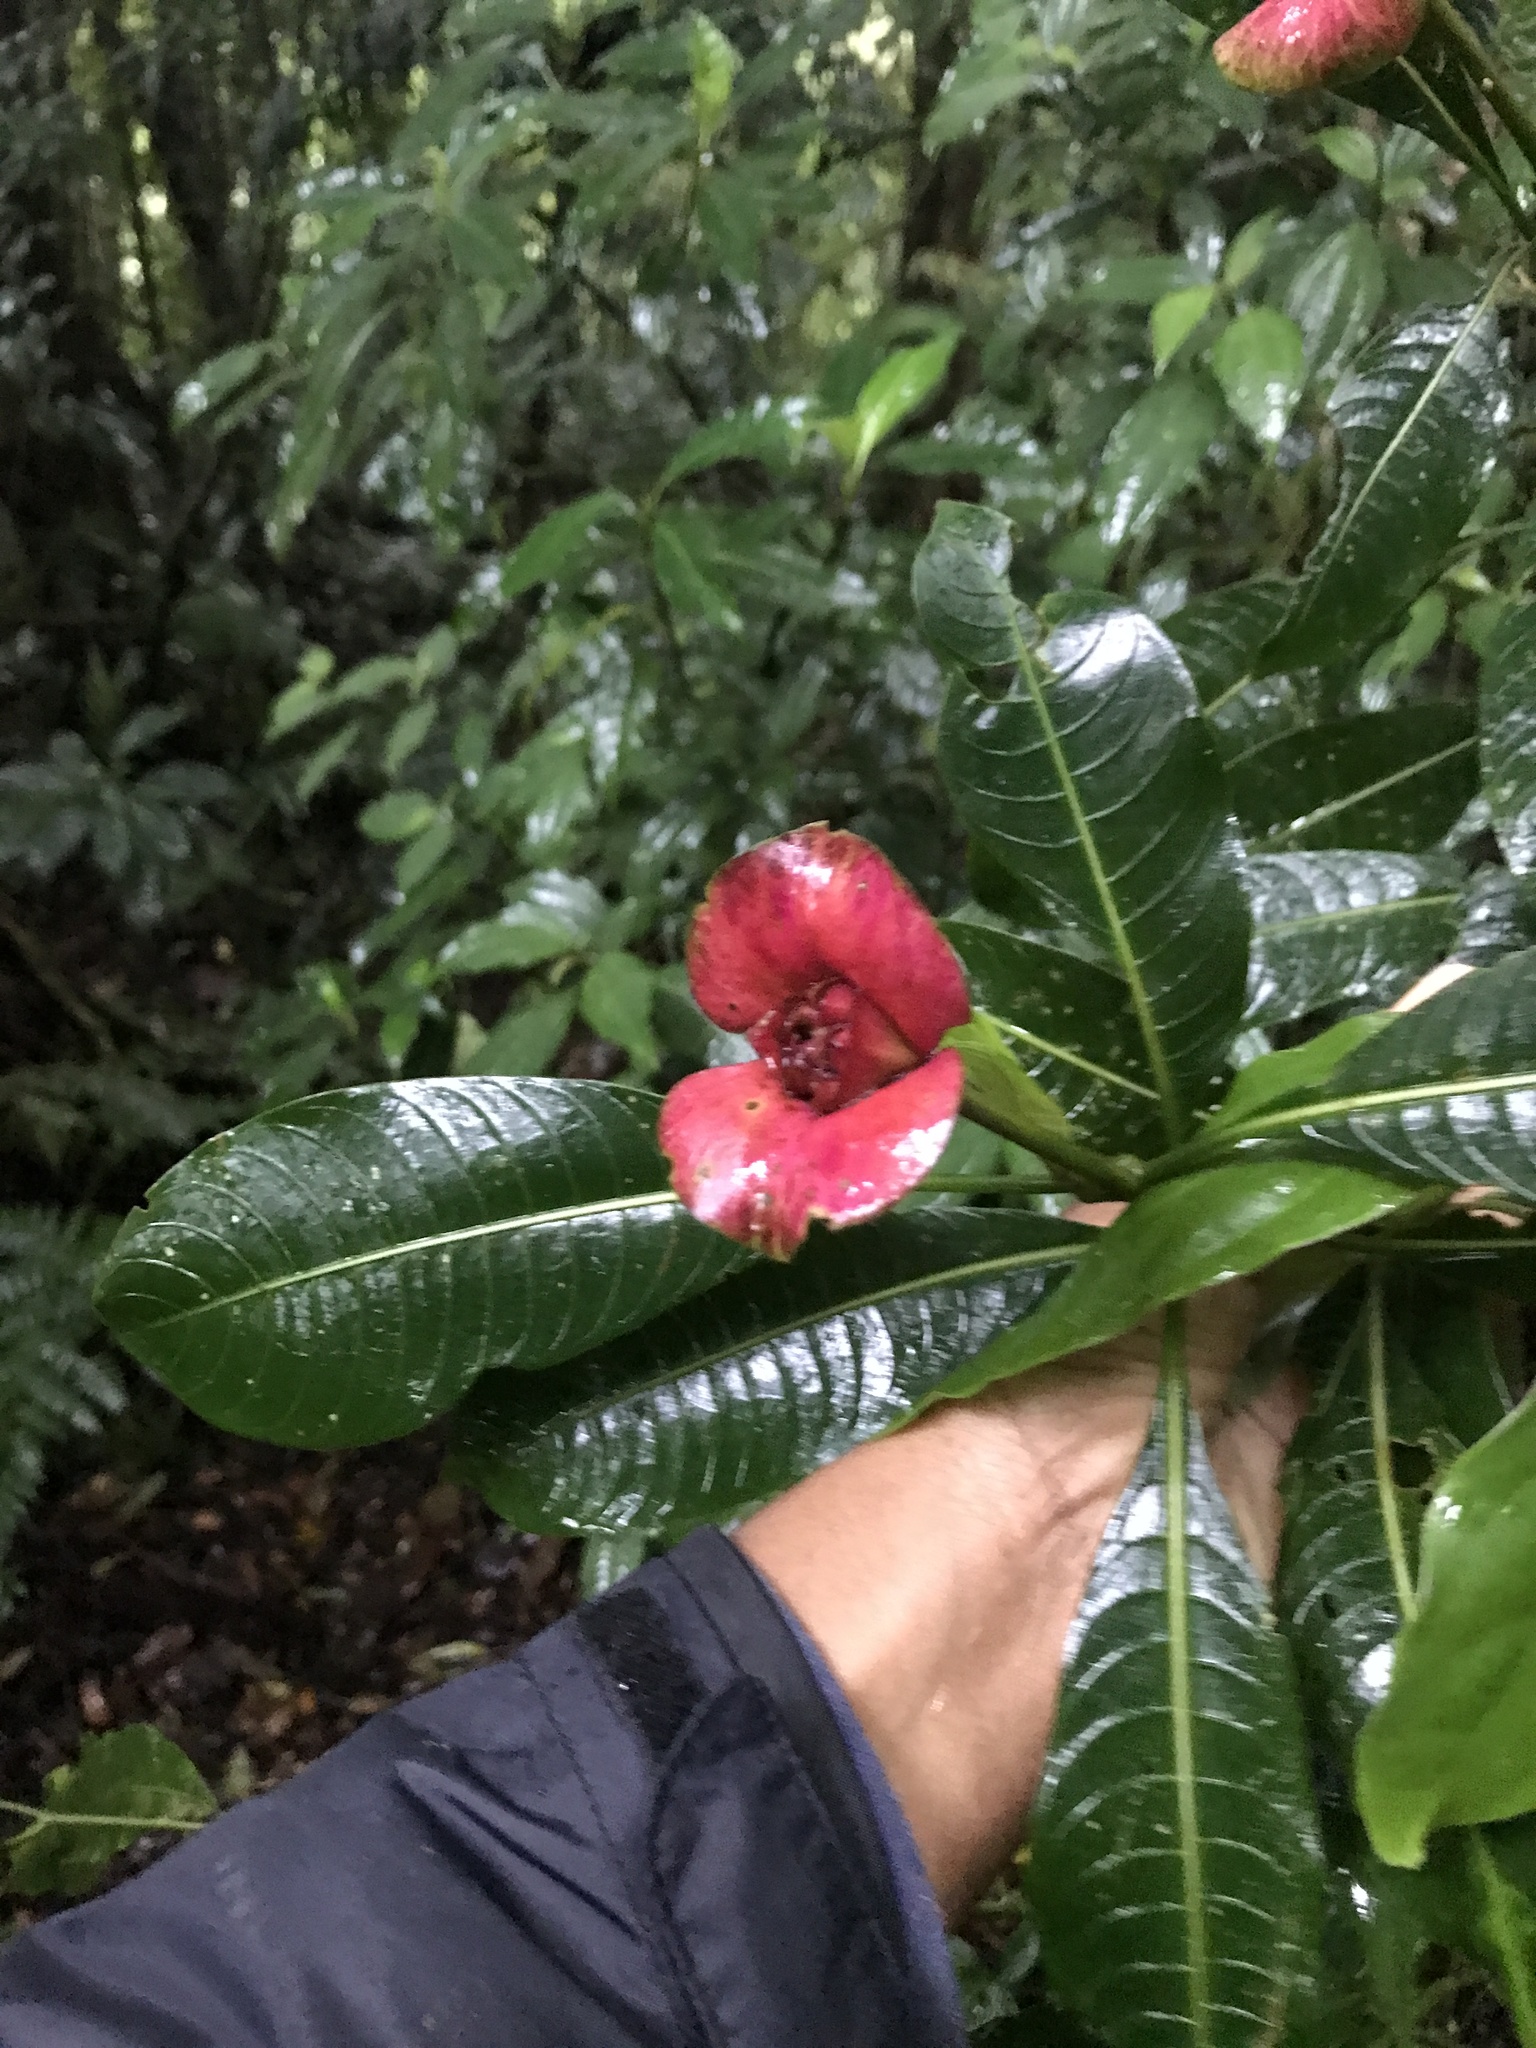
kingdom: Plantae
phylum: Tracheophyta
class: Magnoliopsida
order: Gentianales
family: Rubiaceae
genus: Palicourea
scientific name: Palicourea elata
